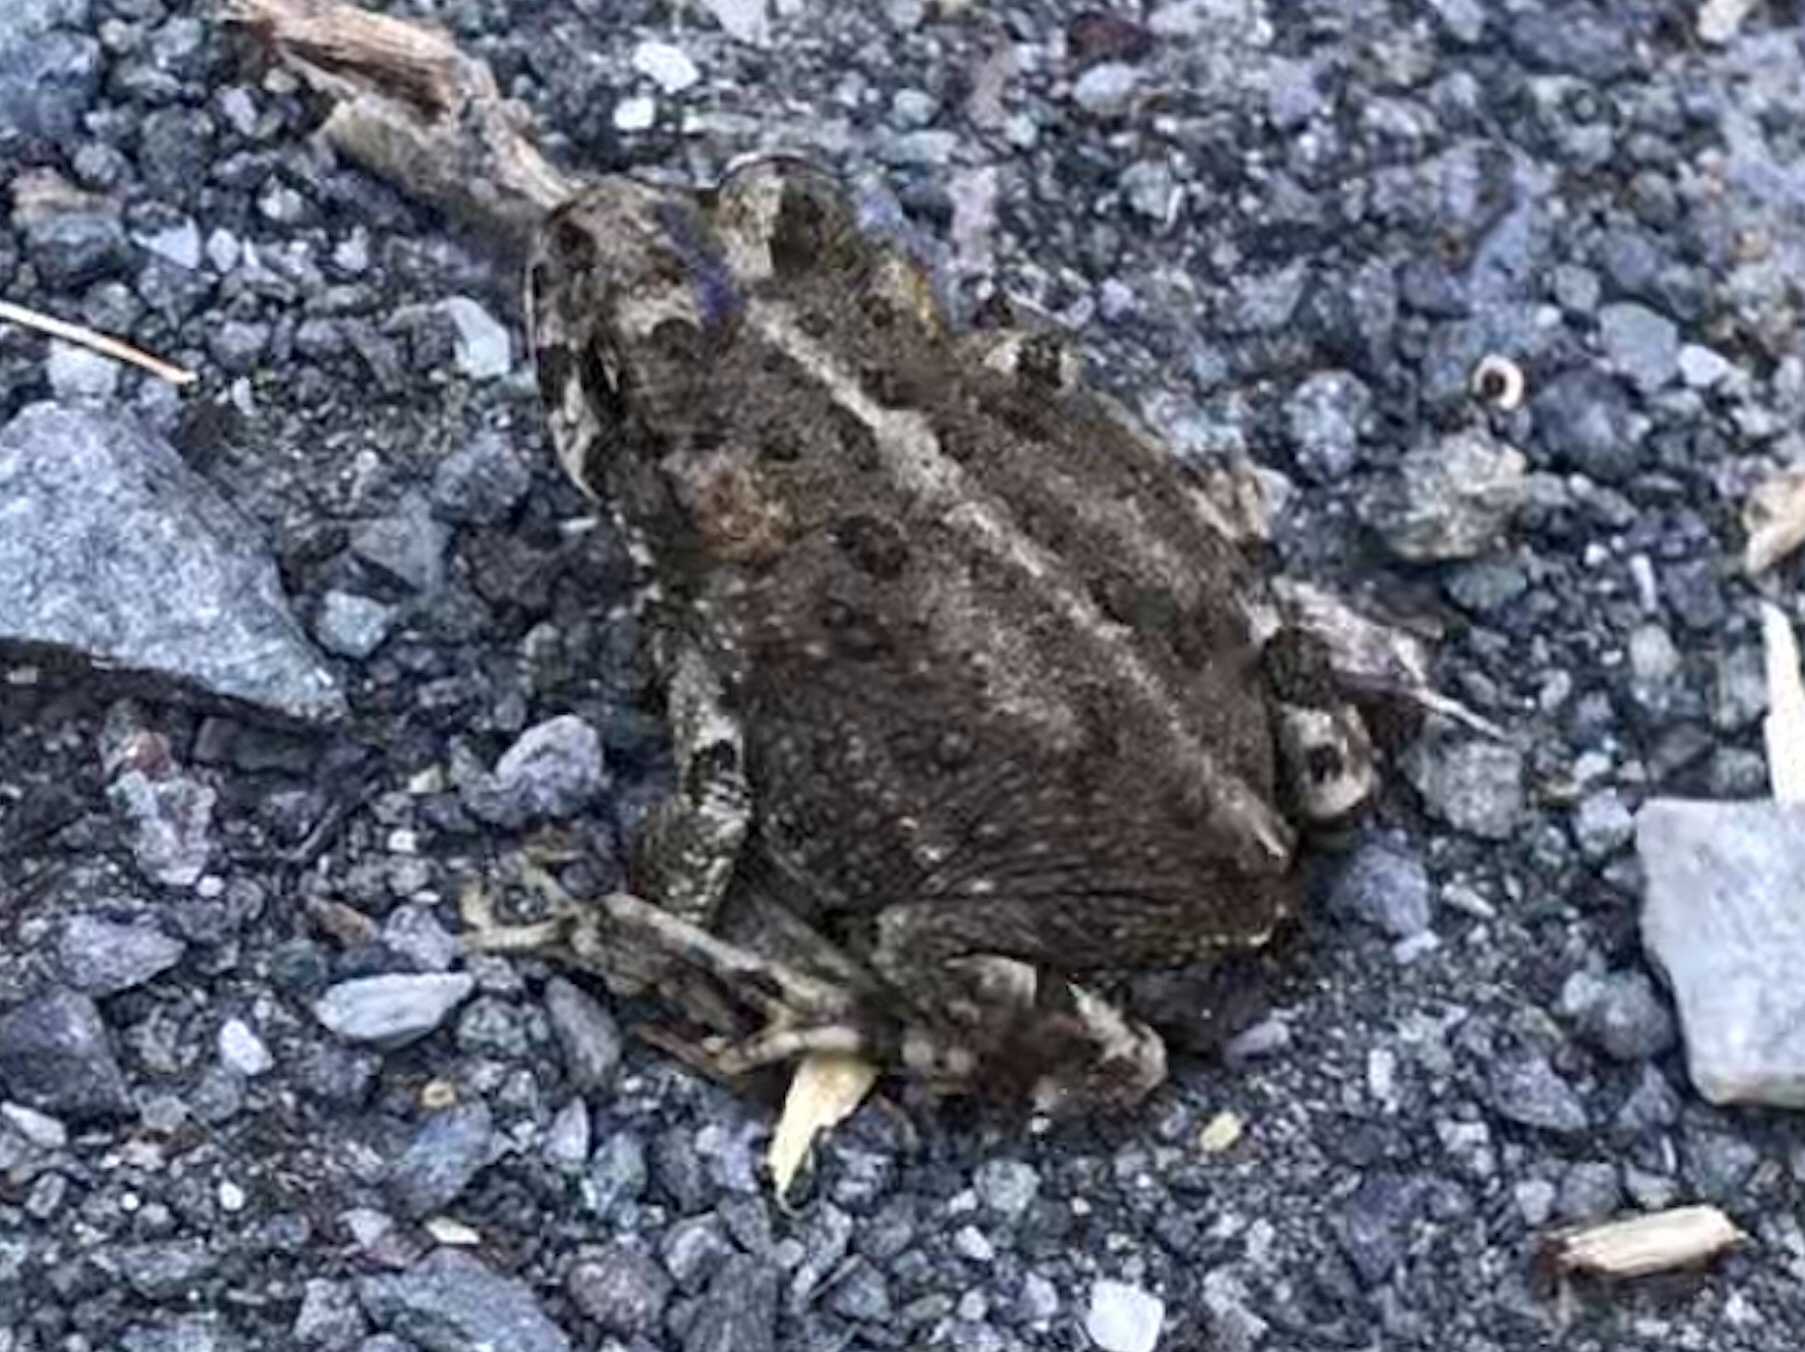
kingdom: Animalia
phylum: Chordata
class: Amphibia
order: Anura
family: Bufonidae
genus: Anaxyrus
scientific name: Anaxyrus boreas
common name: Western toad
